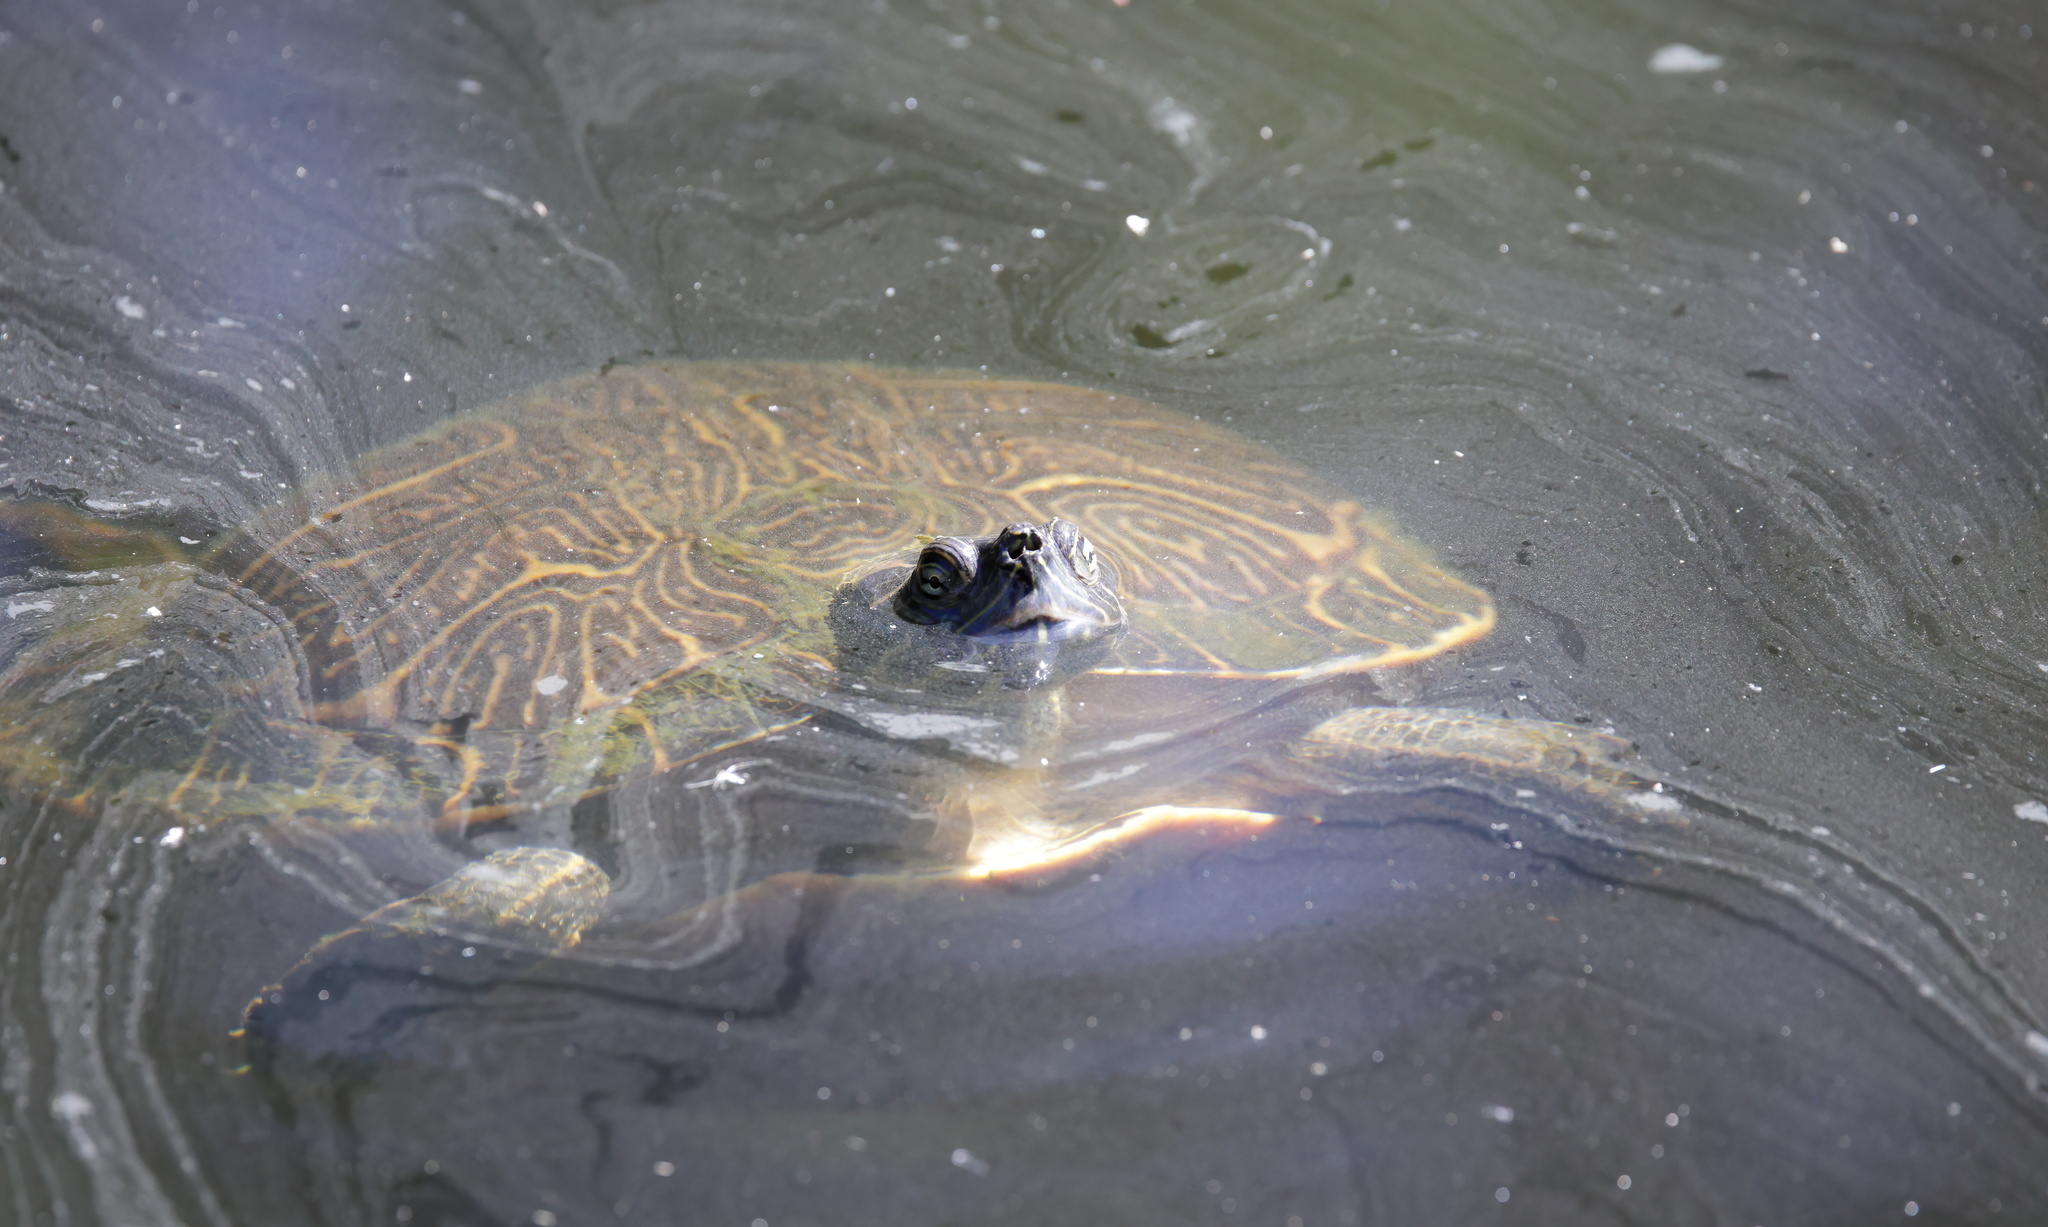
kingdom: Animalia
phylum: Chordata
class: Testudines
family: Emydidae
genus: Pseudemys
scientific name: Pseudemys concinna
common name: Eastern river cooter
